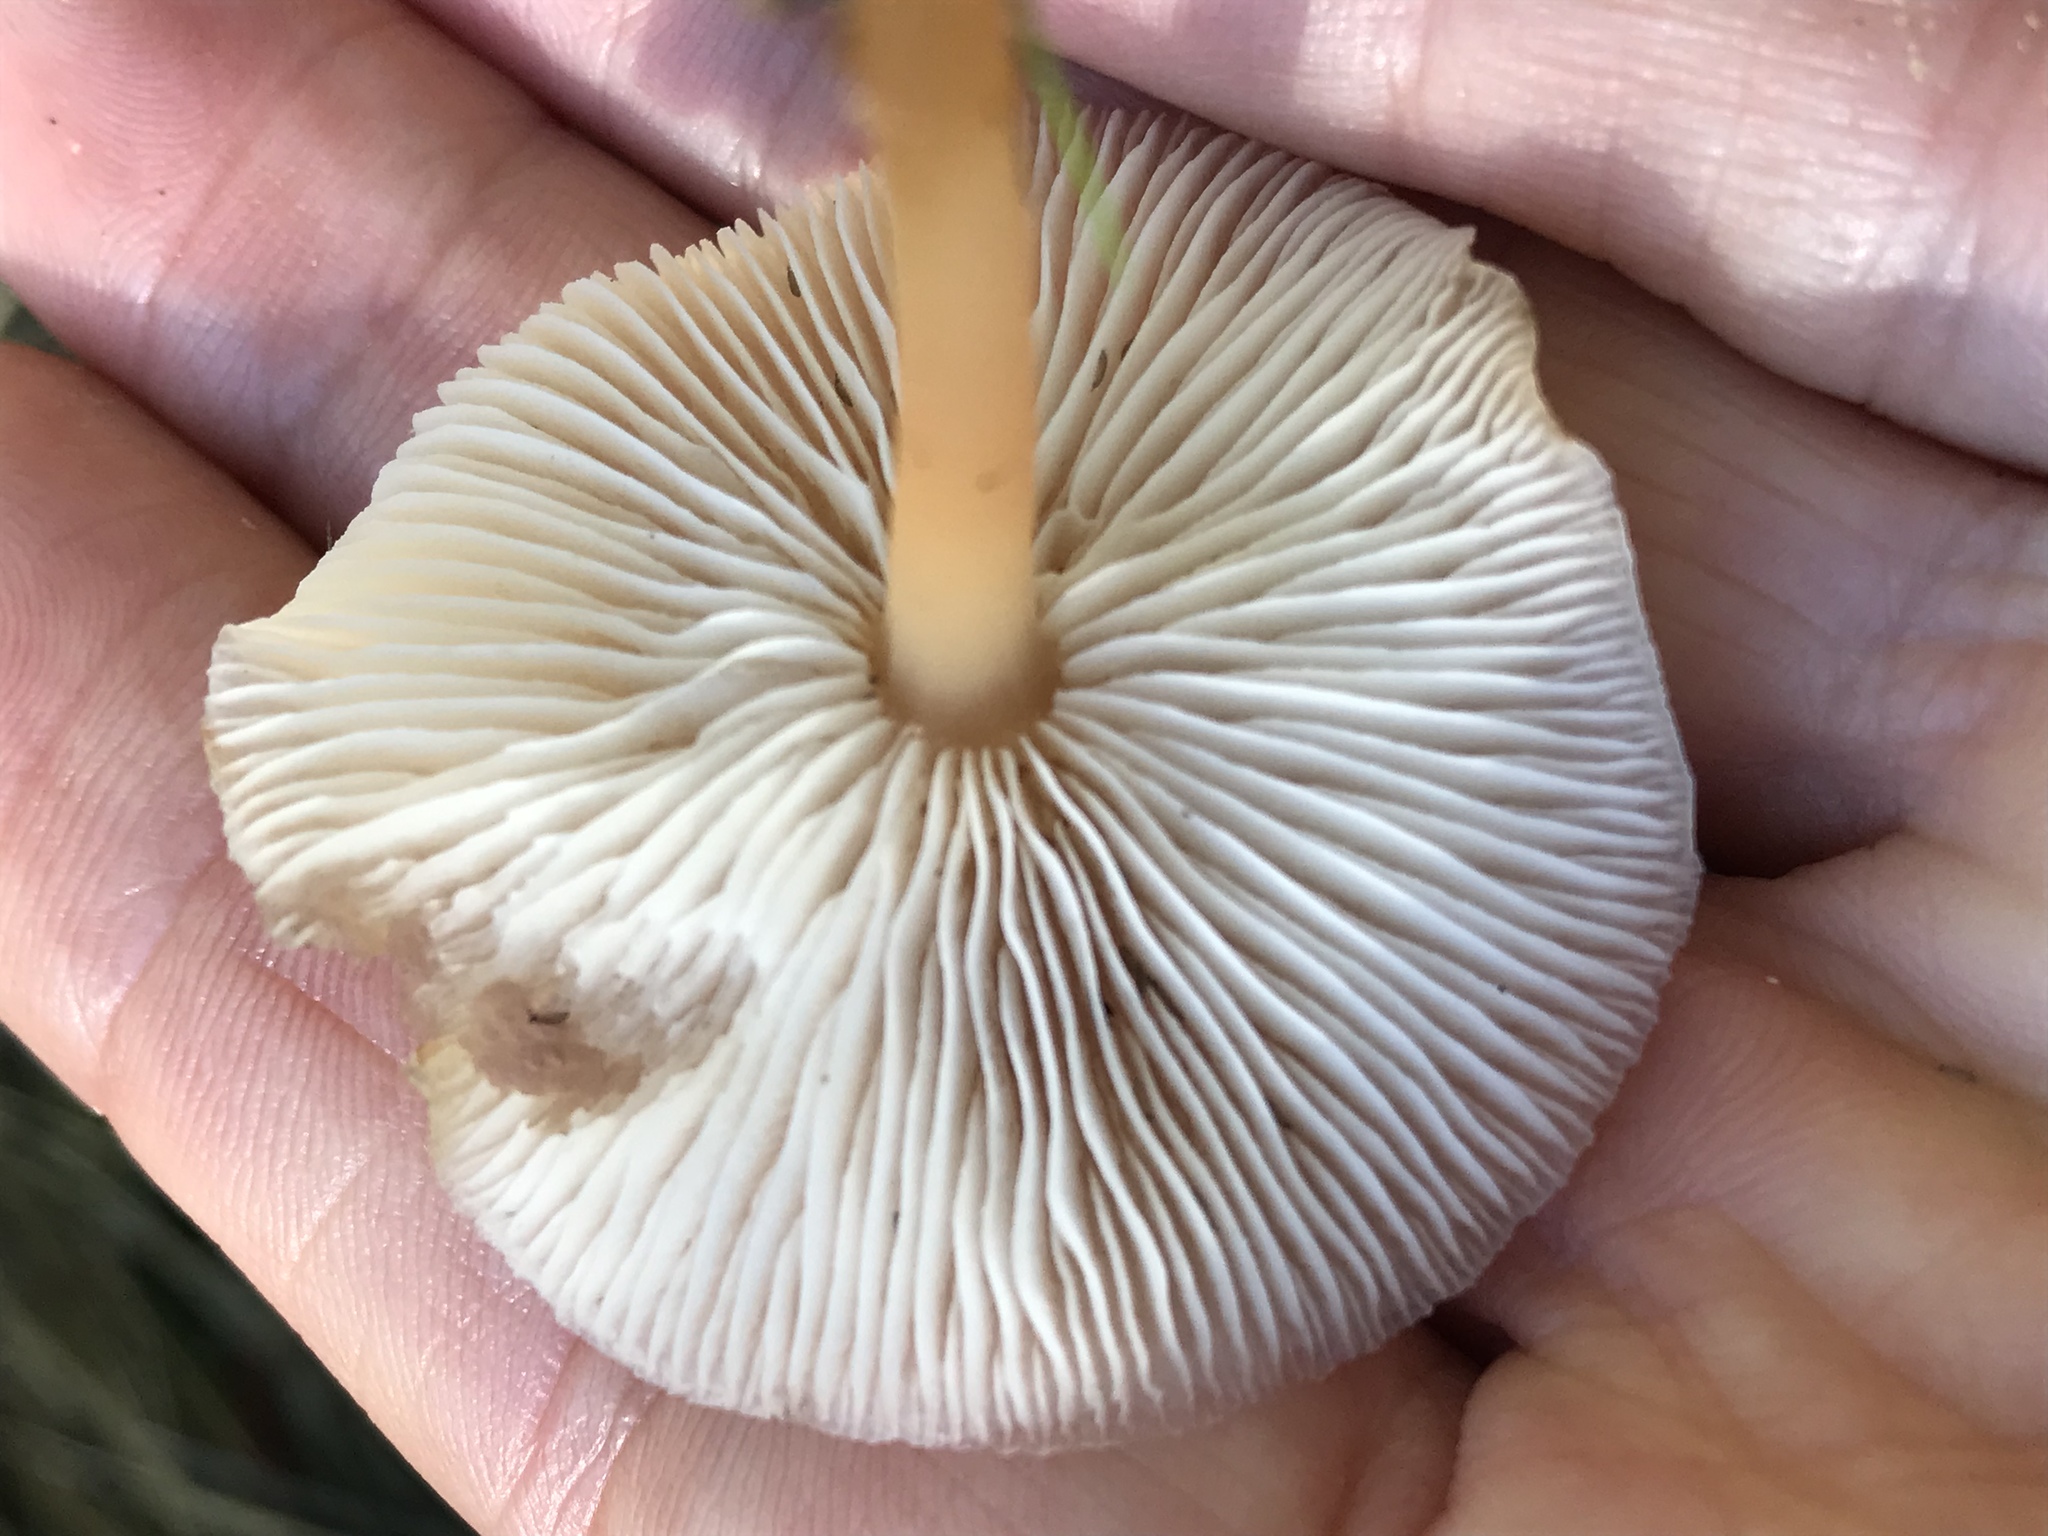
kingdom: Fungi
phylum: Basidiomycota
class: Agaricomycetes
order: Agaricales
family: Omphalotaceae
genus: Gymnopus
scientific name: Gymnopus dryophilus
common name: Penny top
